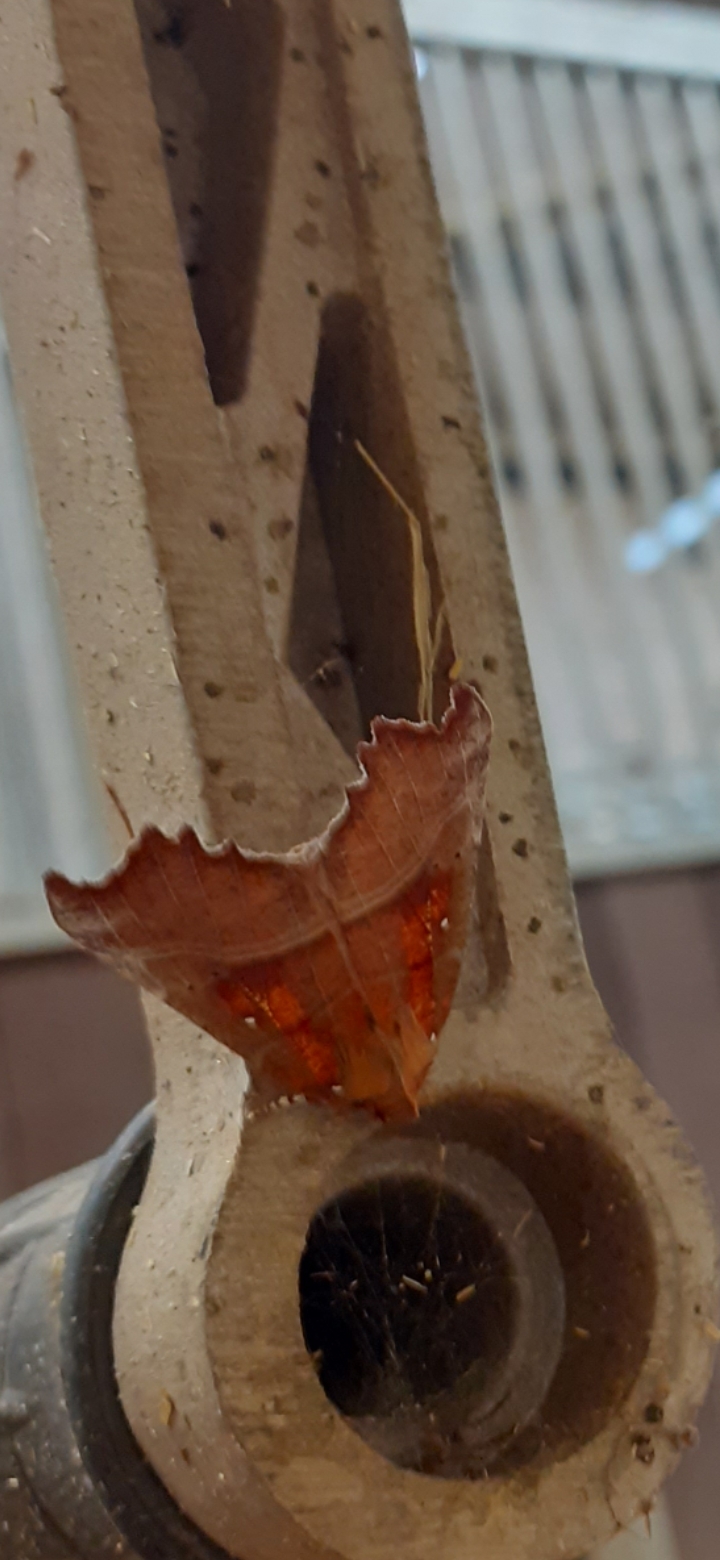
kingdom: Animalia
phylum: Arthropoda
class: Insecta
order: Lepidoptera
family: Erebidae
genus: Scoliopteryx
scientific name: Scoliopteryx libatrix
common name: Herald
